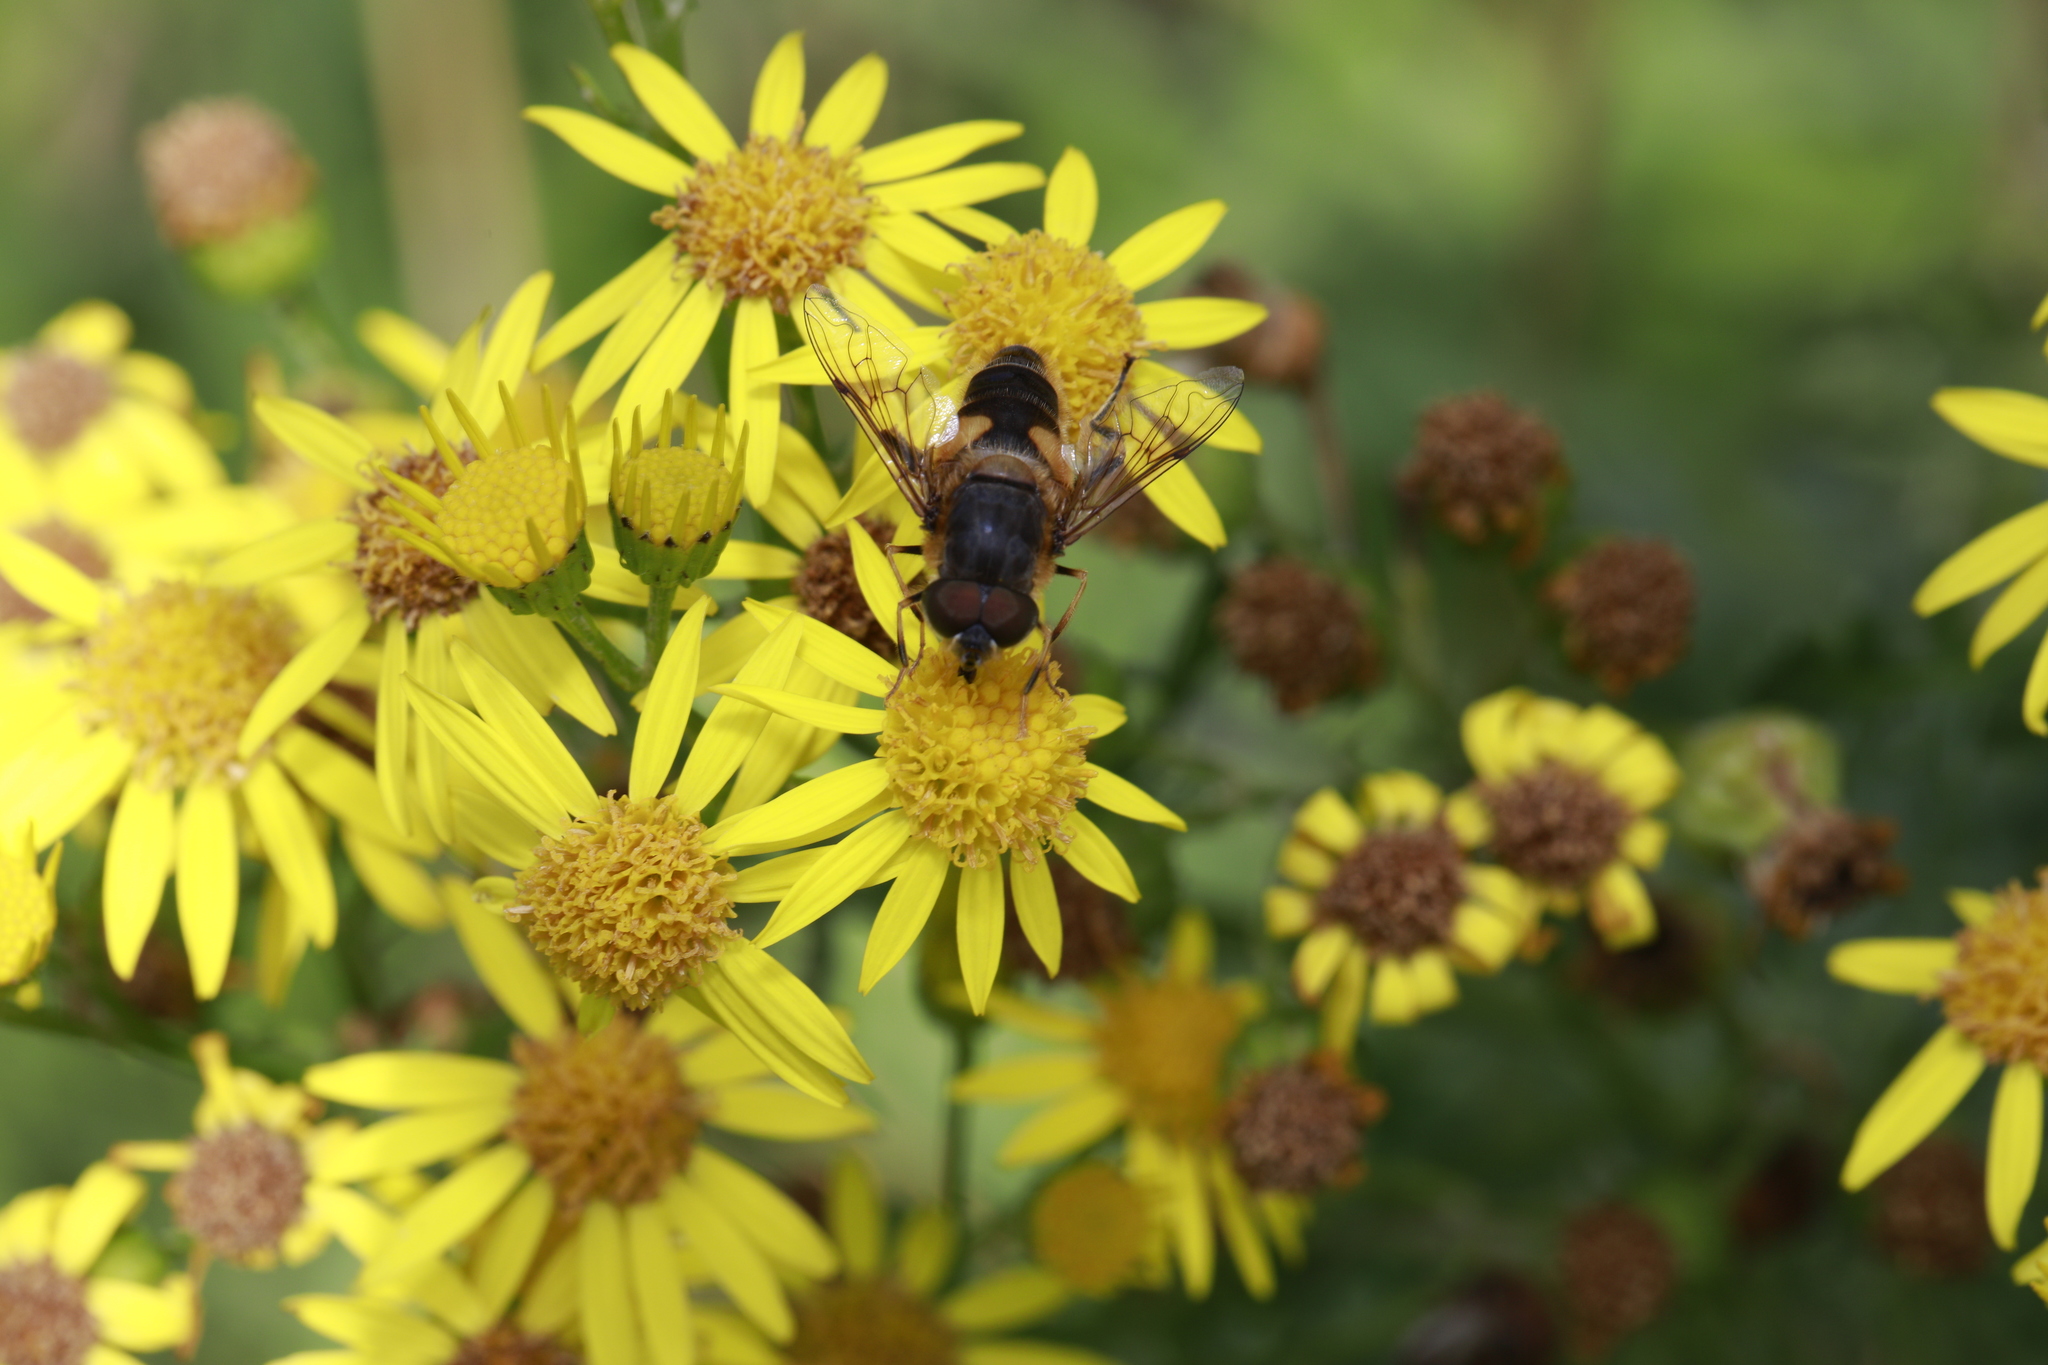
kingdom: Animalia
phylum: Arthropoda
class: Insecta
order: Diptera
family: Syrphidae
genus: Eristalis
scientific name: Eristalis pertinax
